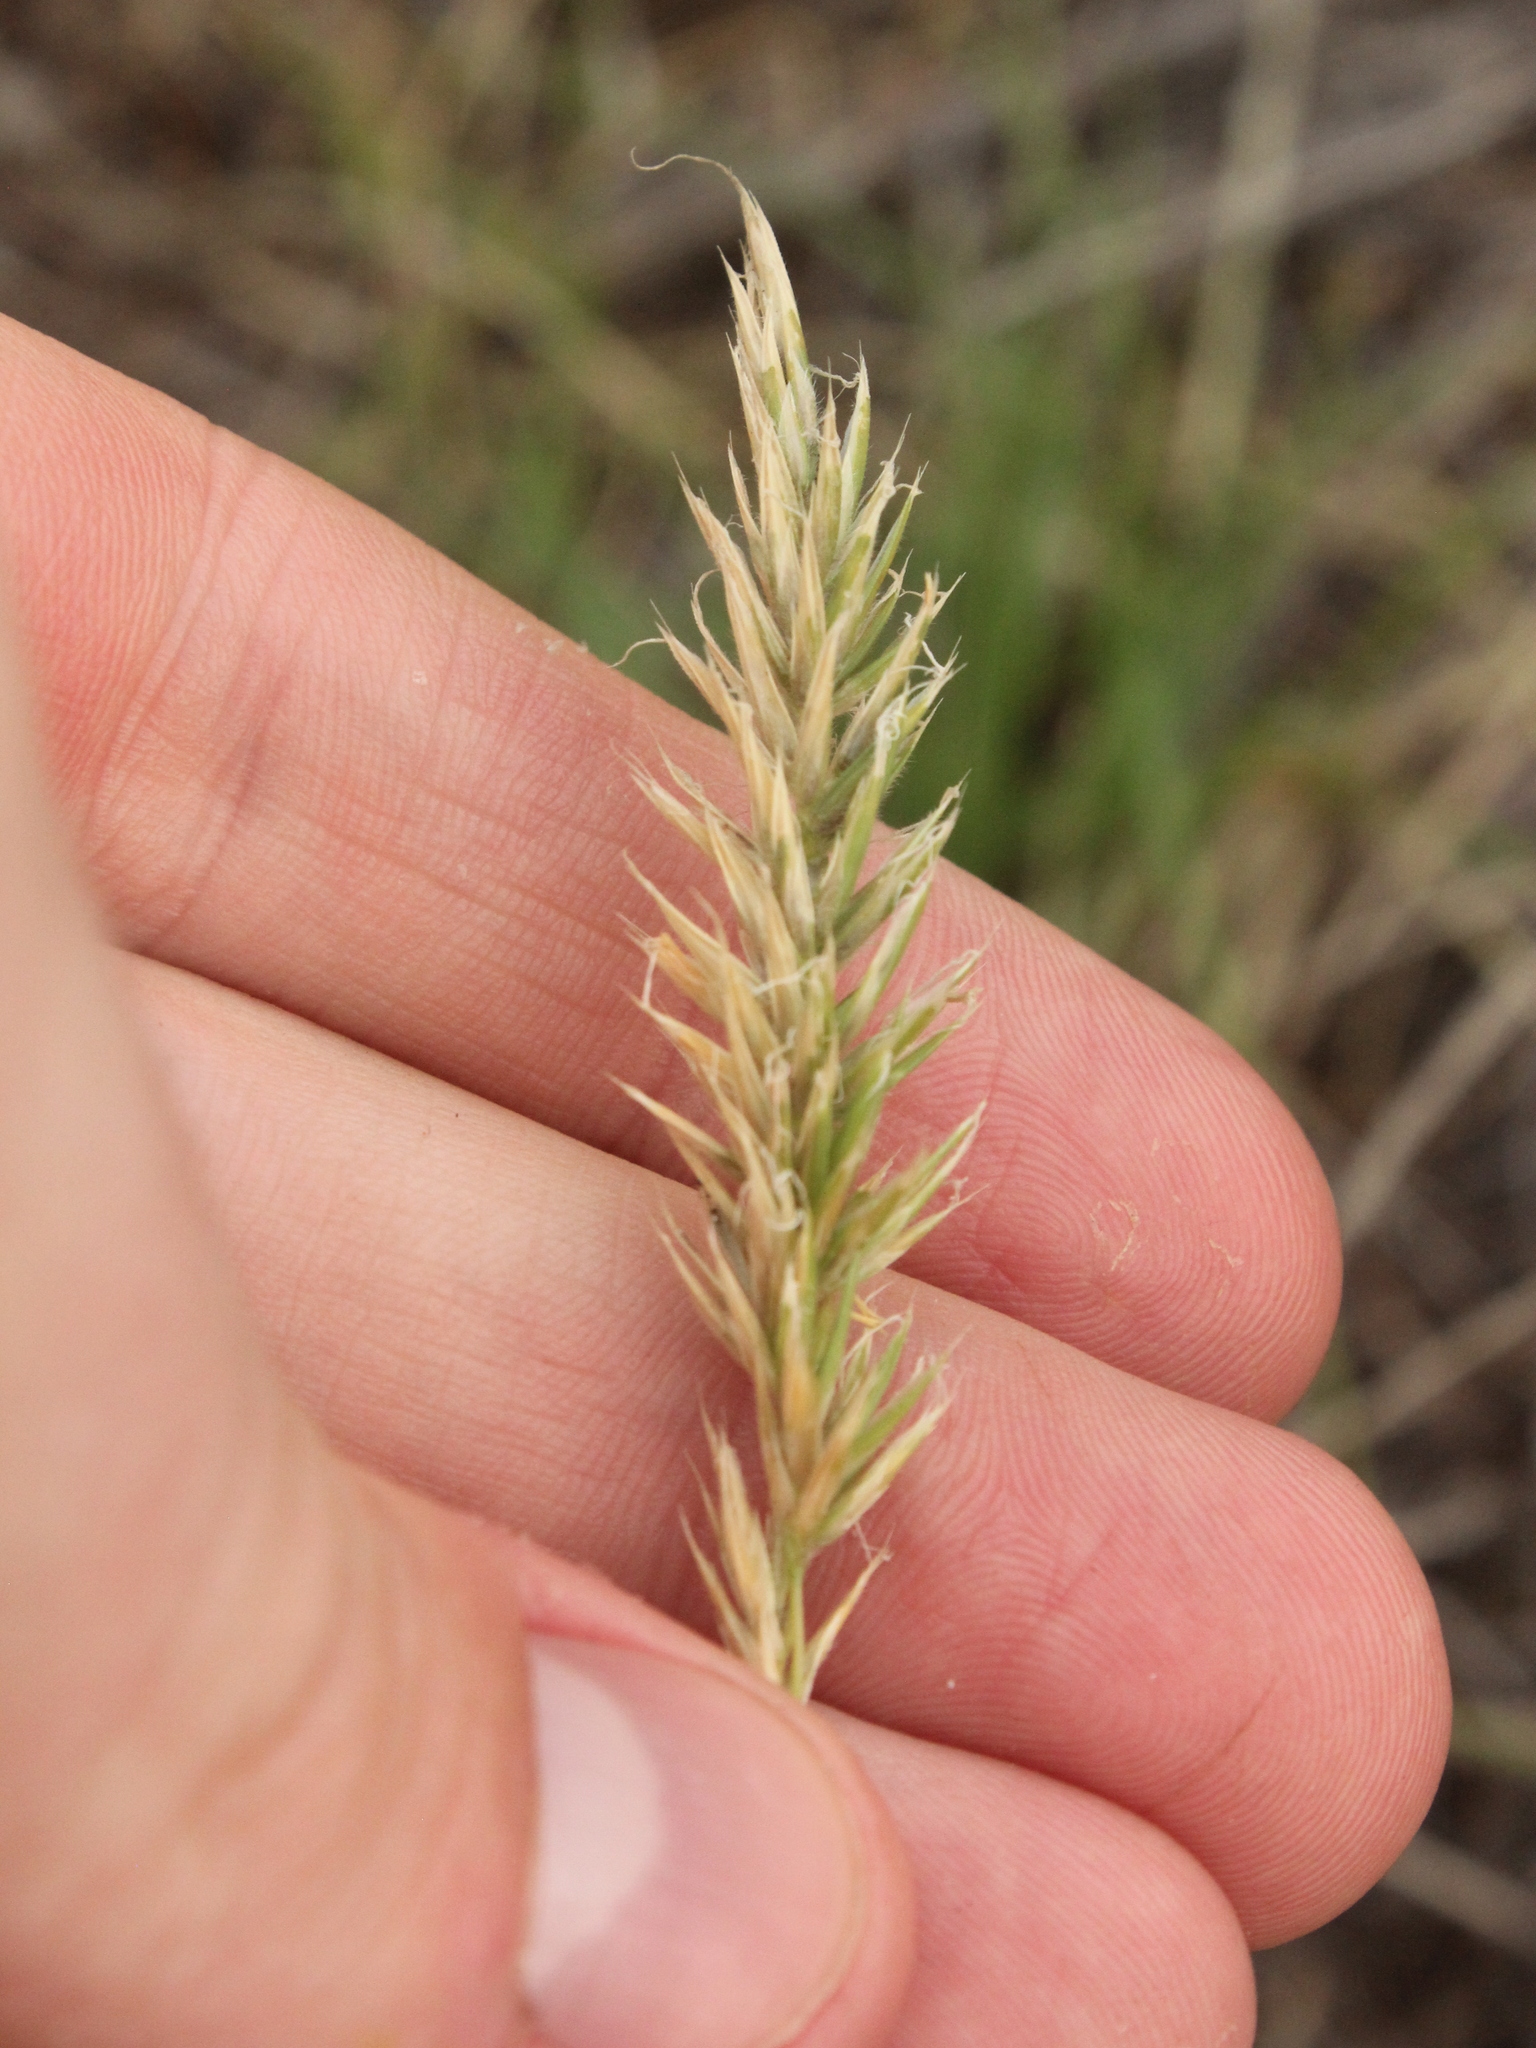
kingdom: Plantae
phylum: Tracheophyta
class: Liliopsida
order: Poales
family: Poaceae
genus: Anthoxanthum
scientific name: Anthoxanthum odoratum
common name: Sweet vernalgrass
